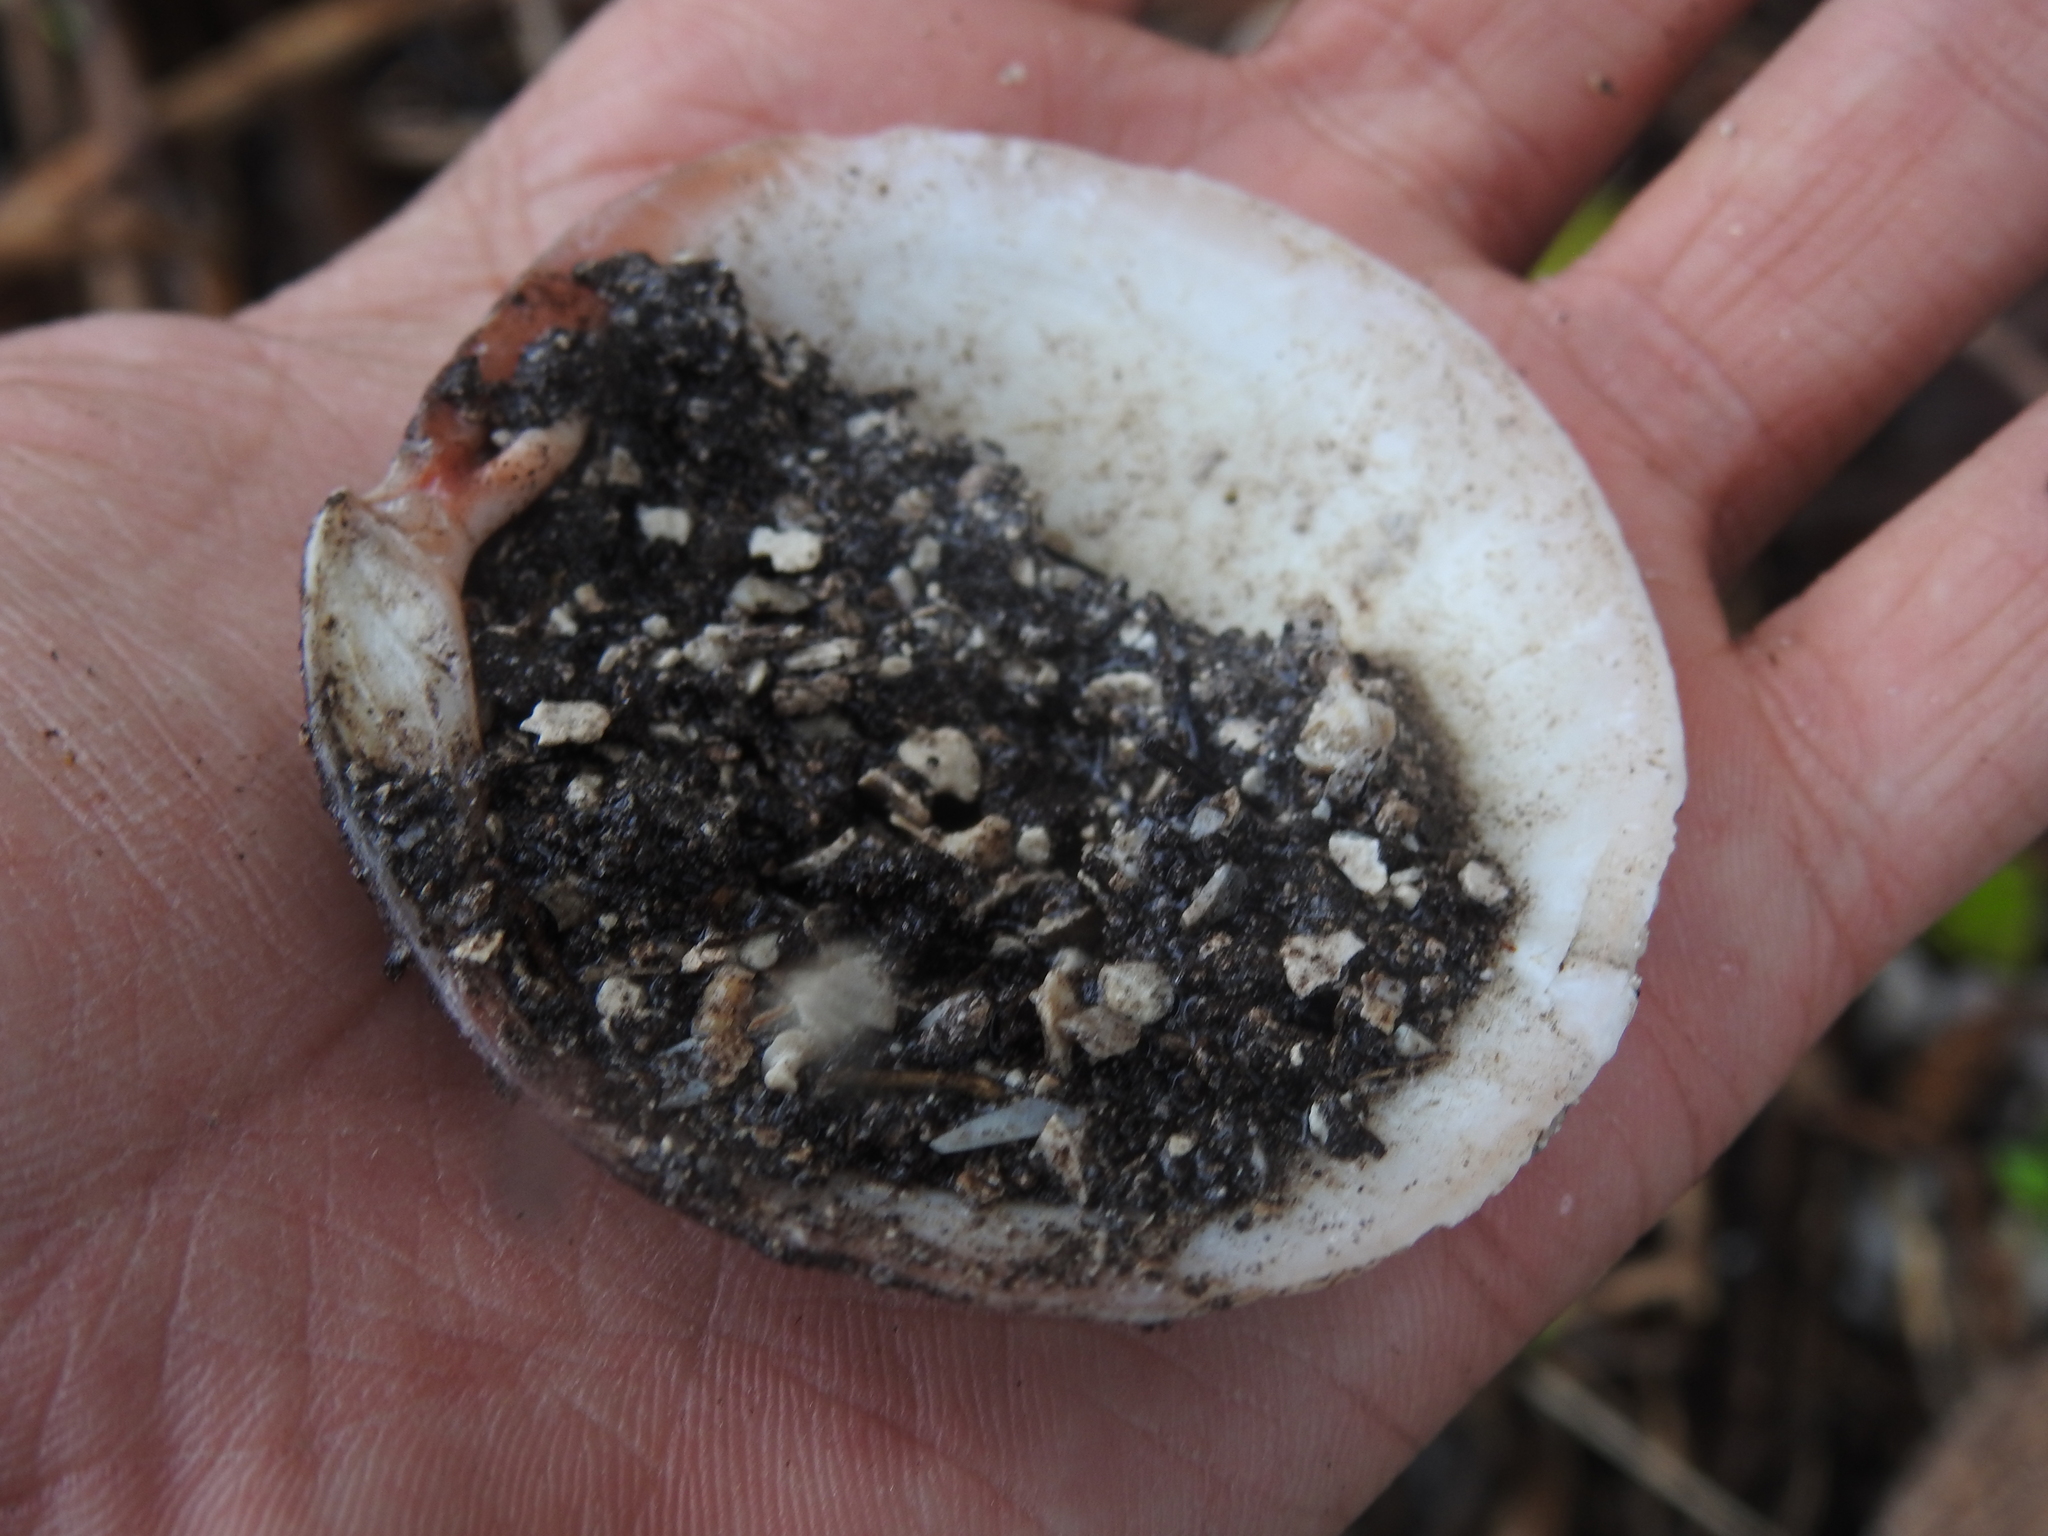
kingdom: Animalia
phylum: Mollusca
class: Bivalvia
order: Lucinida
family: Lucinidae
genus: Codakia
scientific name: Codakia orbicularis
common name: Tiger lucine
